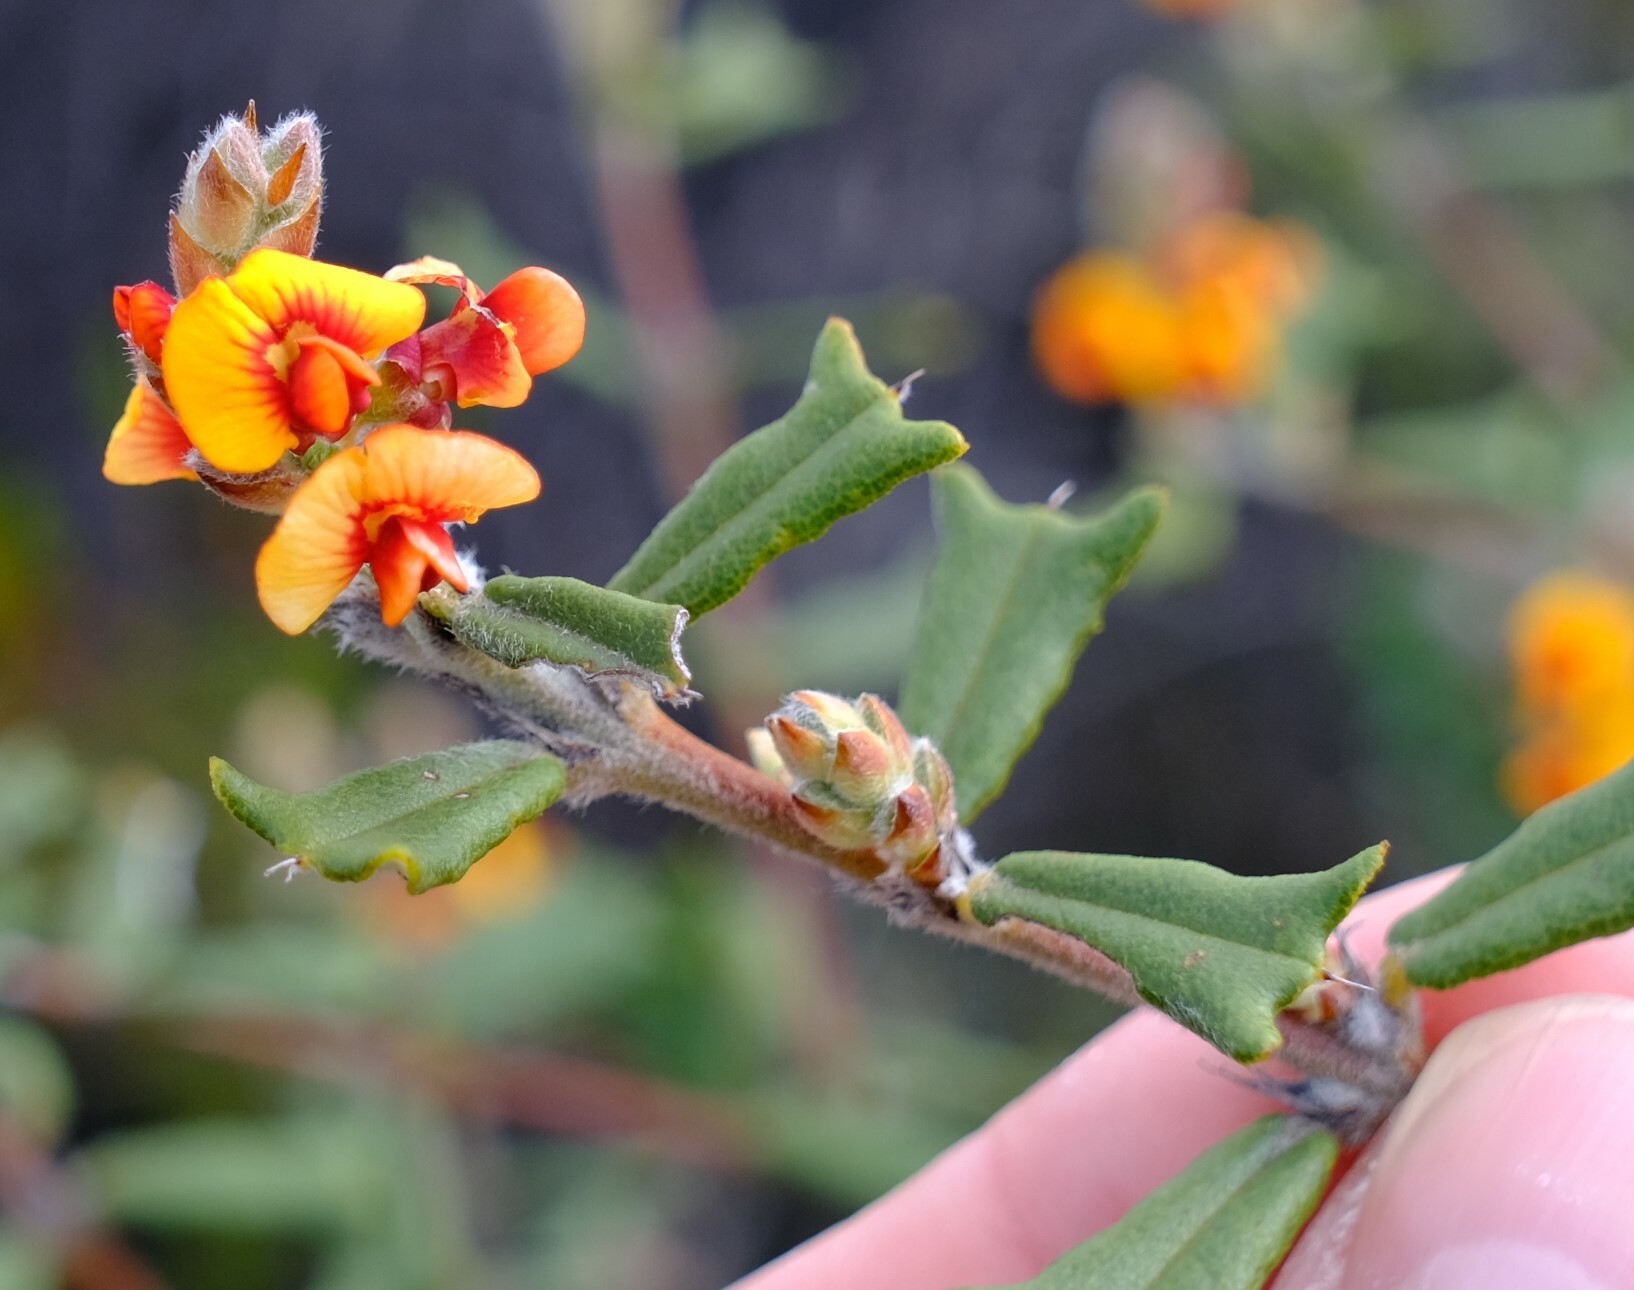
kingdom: Plantae
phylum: Tracheophyta
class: Magnoliopsida
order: Fabales
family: Fabaceae
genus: Gastrolobium
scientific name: Gastrolobium polystachyum
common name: Hill river poison
